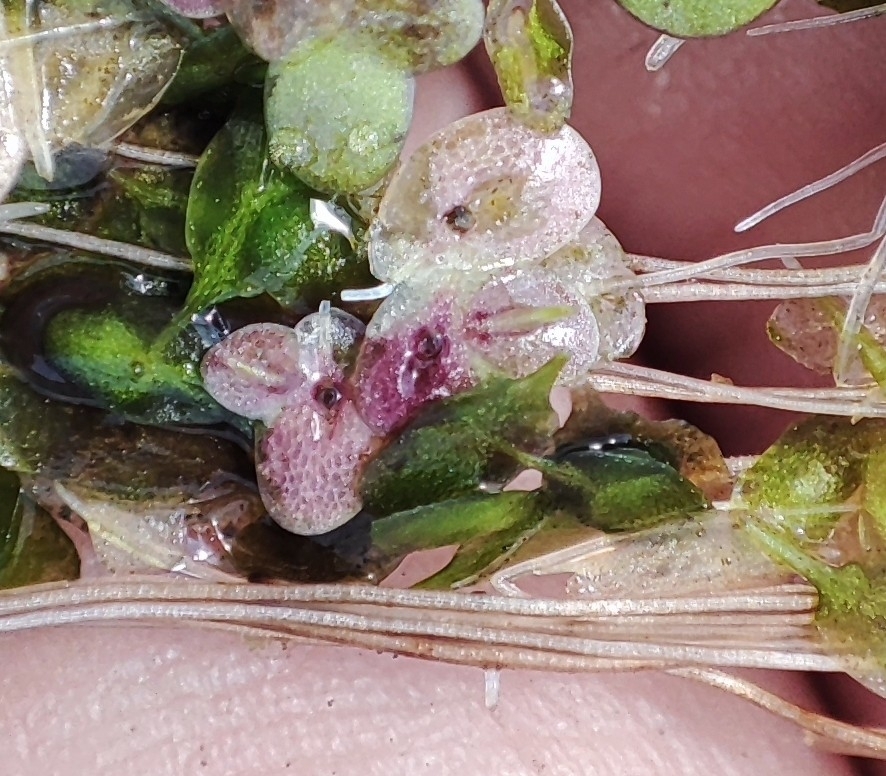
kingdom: Plantae
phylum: Tracheophyta
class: Liliopsida
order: Alismatales
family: Araceae
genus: Spirodela
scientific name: Spirodela polyrhiza
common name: Great duckweed
